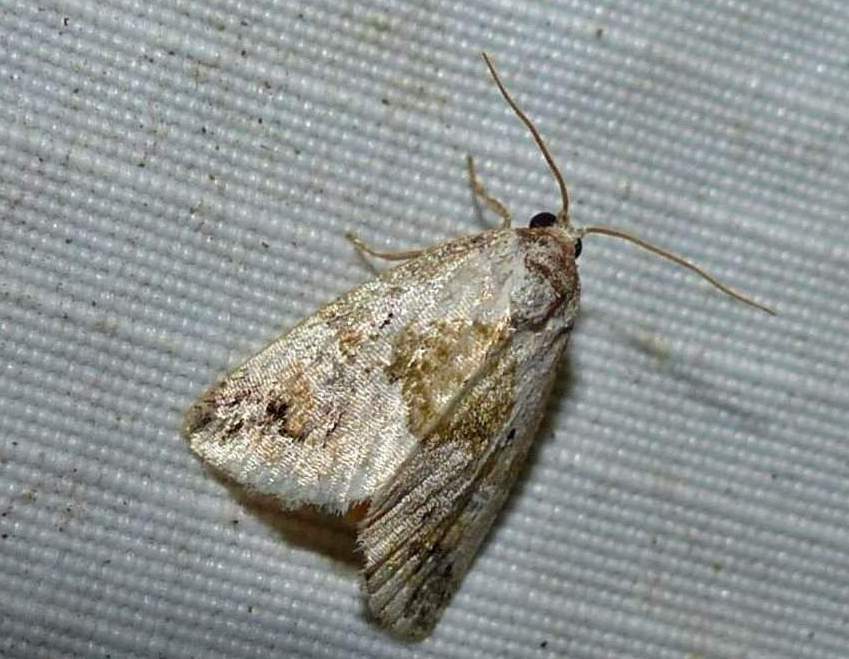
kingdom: Animalia
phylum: Arthropoda
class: Insecta
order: Lepidoptera
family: Noctuidae
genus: Maliattha
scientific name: Maliattha synochitis
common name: Black-dotted glyph
